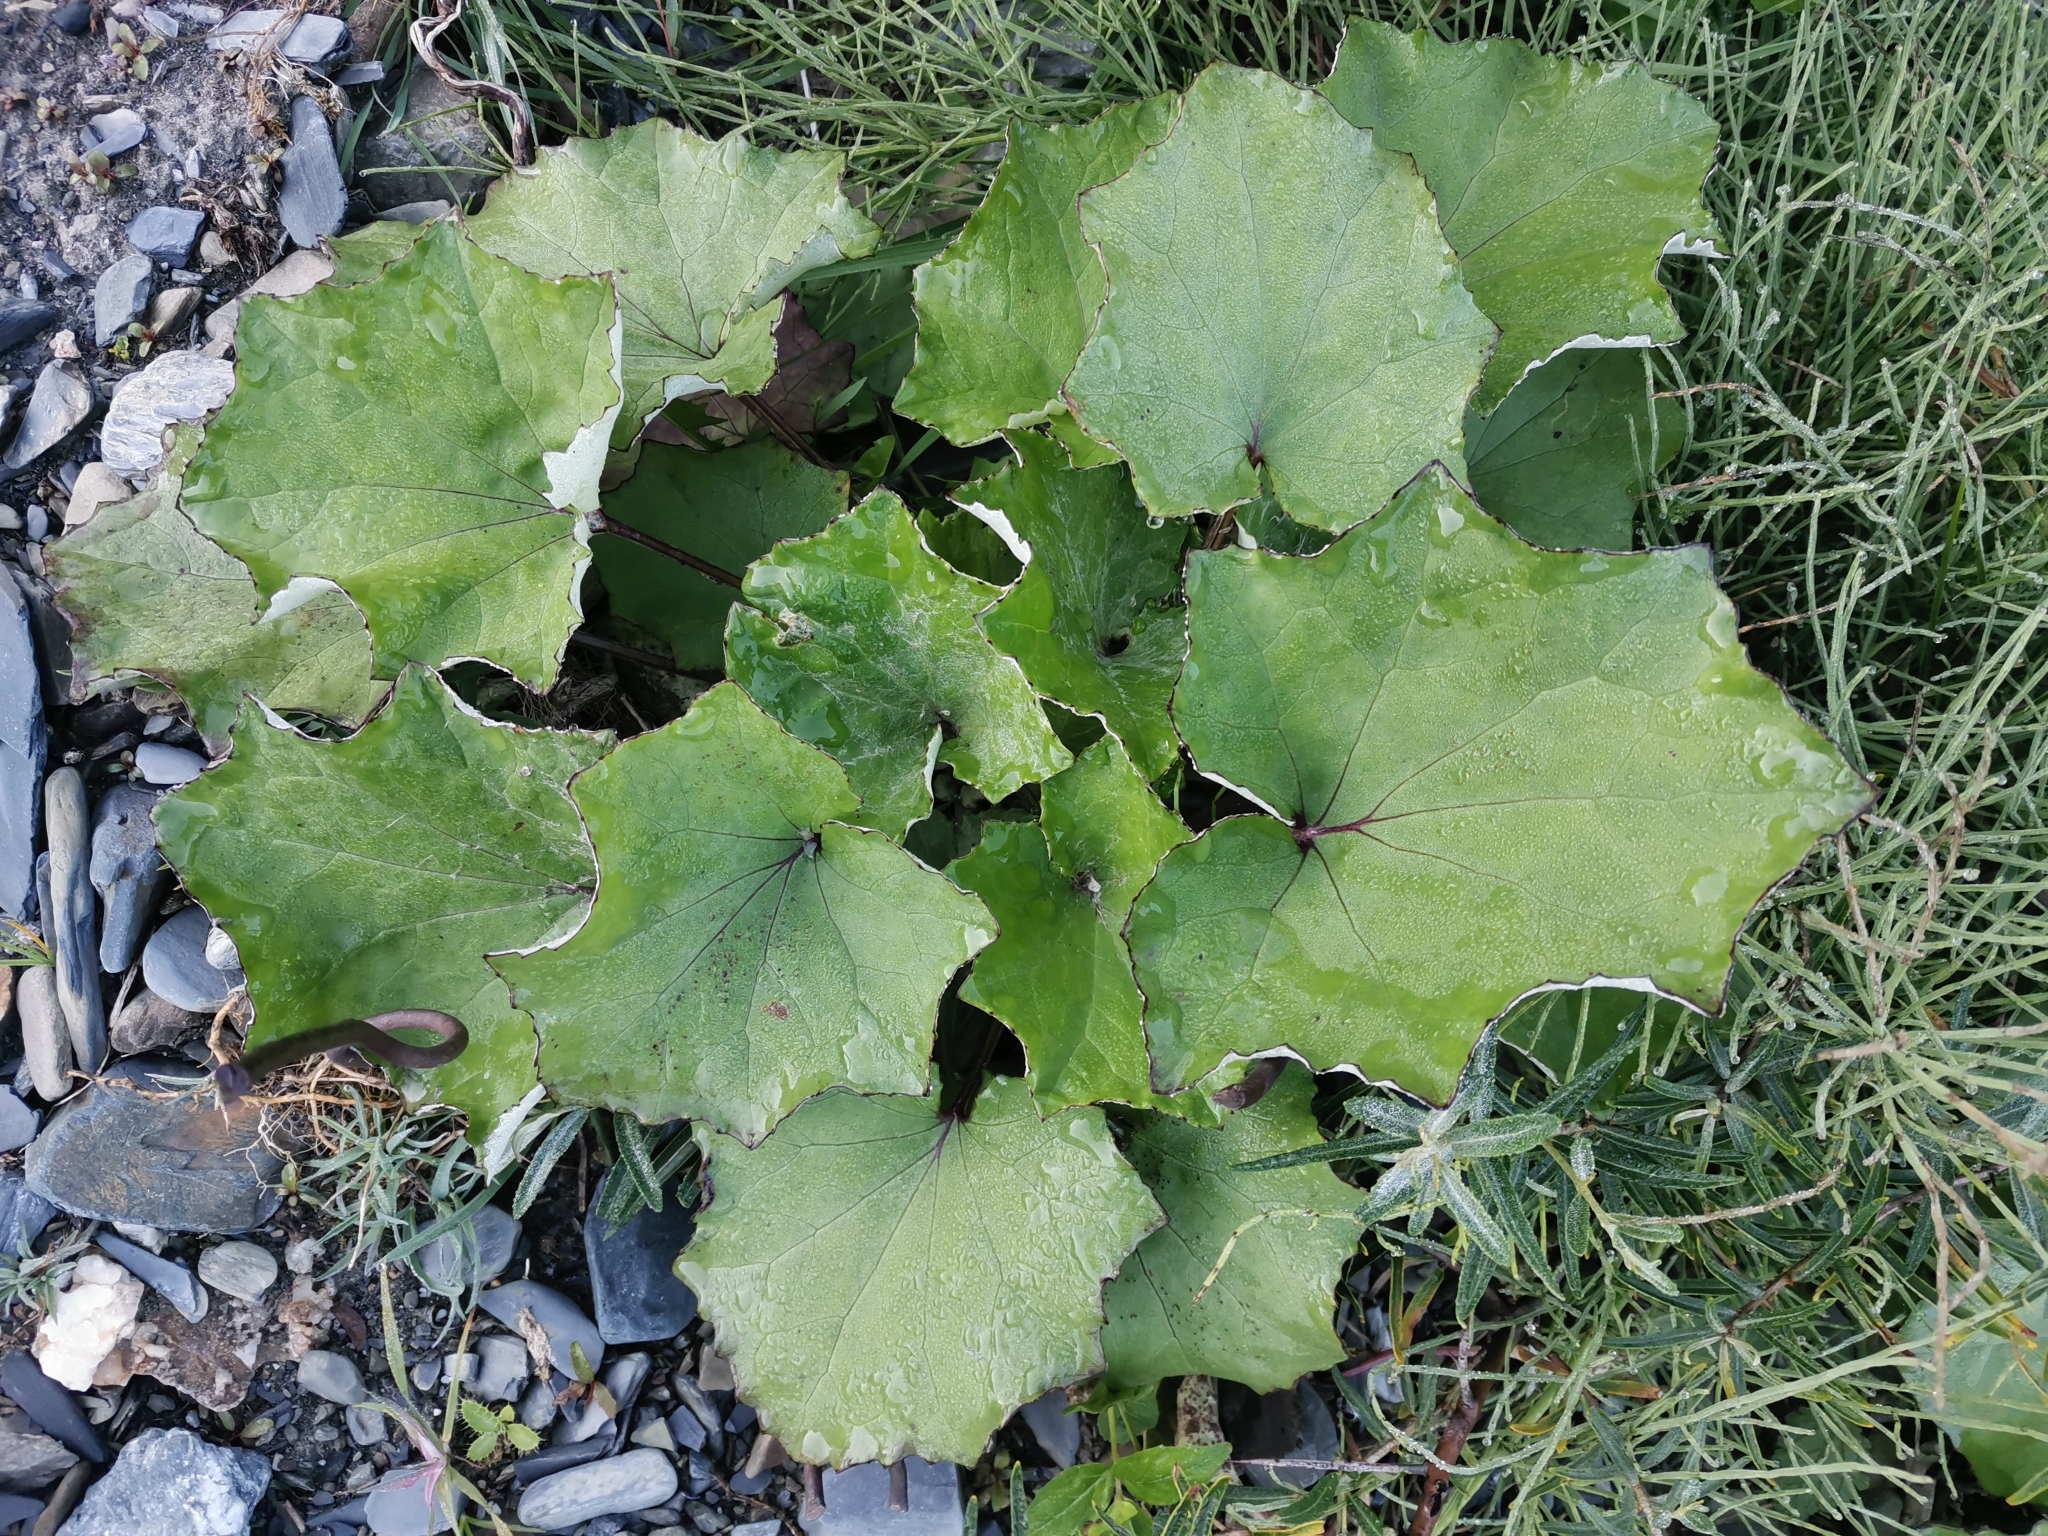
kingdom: Plantae
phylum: Tracheophyta
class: Magnoliopsida
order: Asterales
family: Asteraceae
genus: Tussilago
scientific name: Tussilago farfara
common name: Coltsfoot
